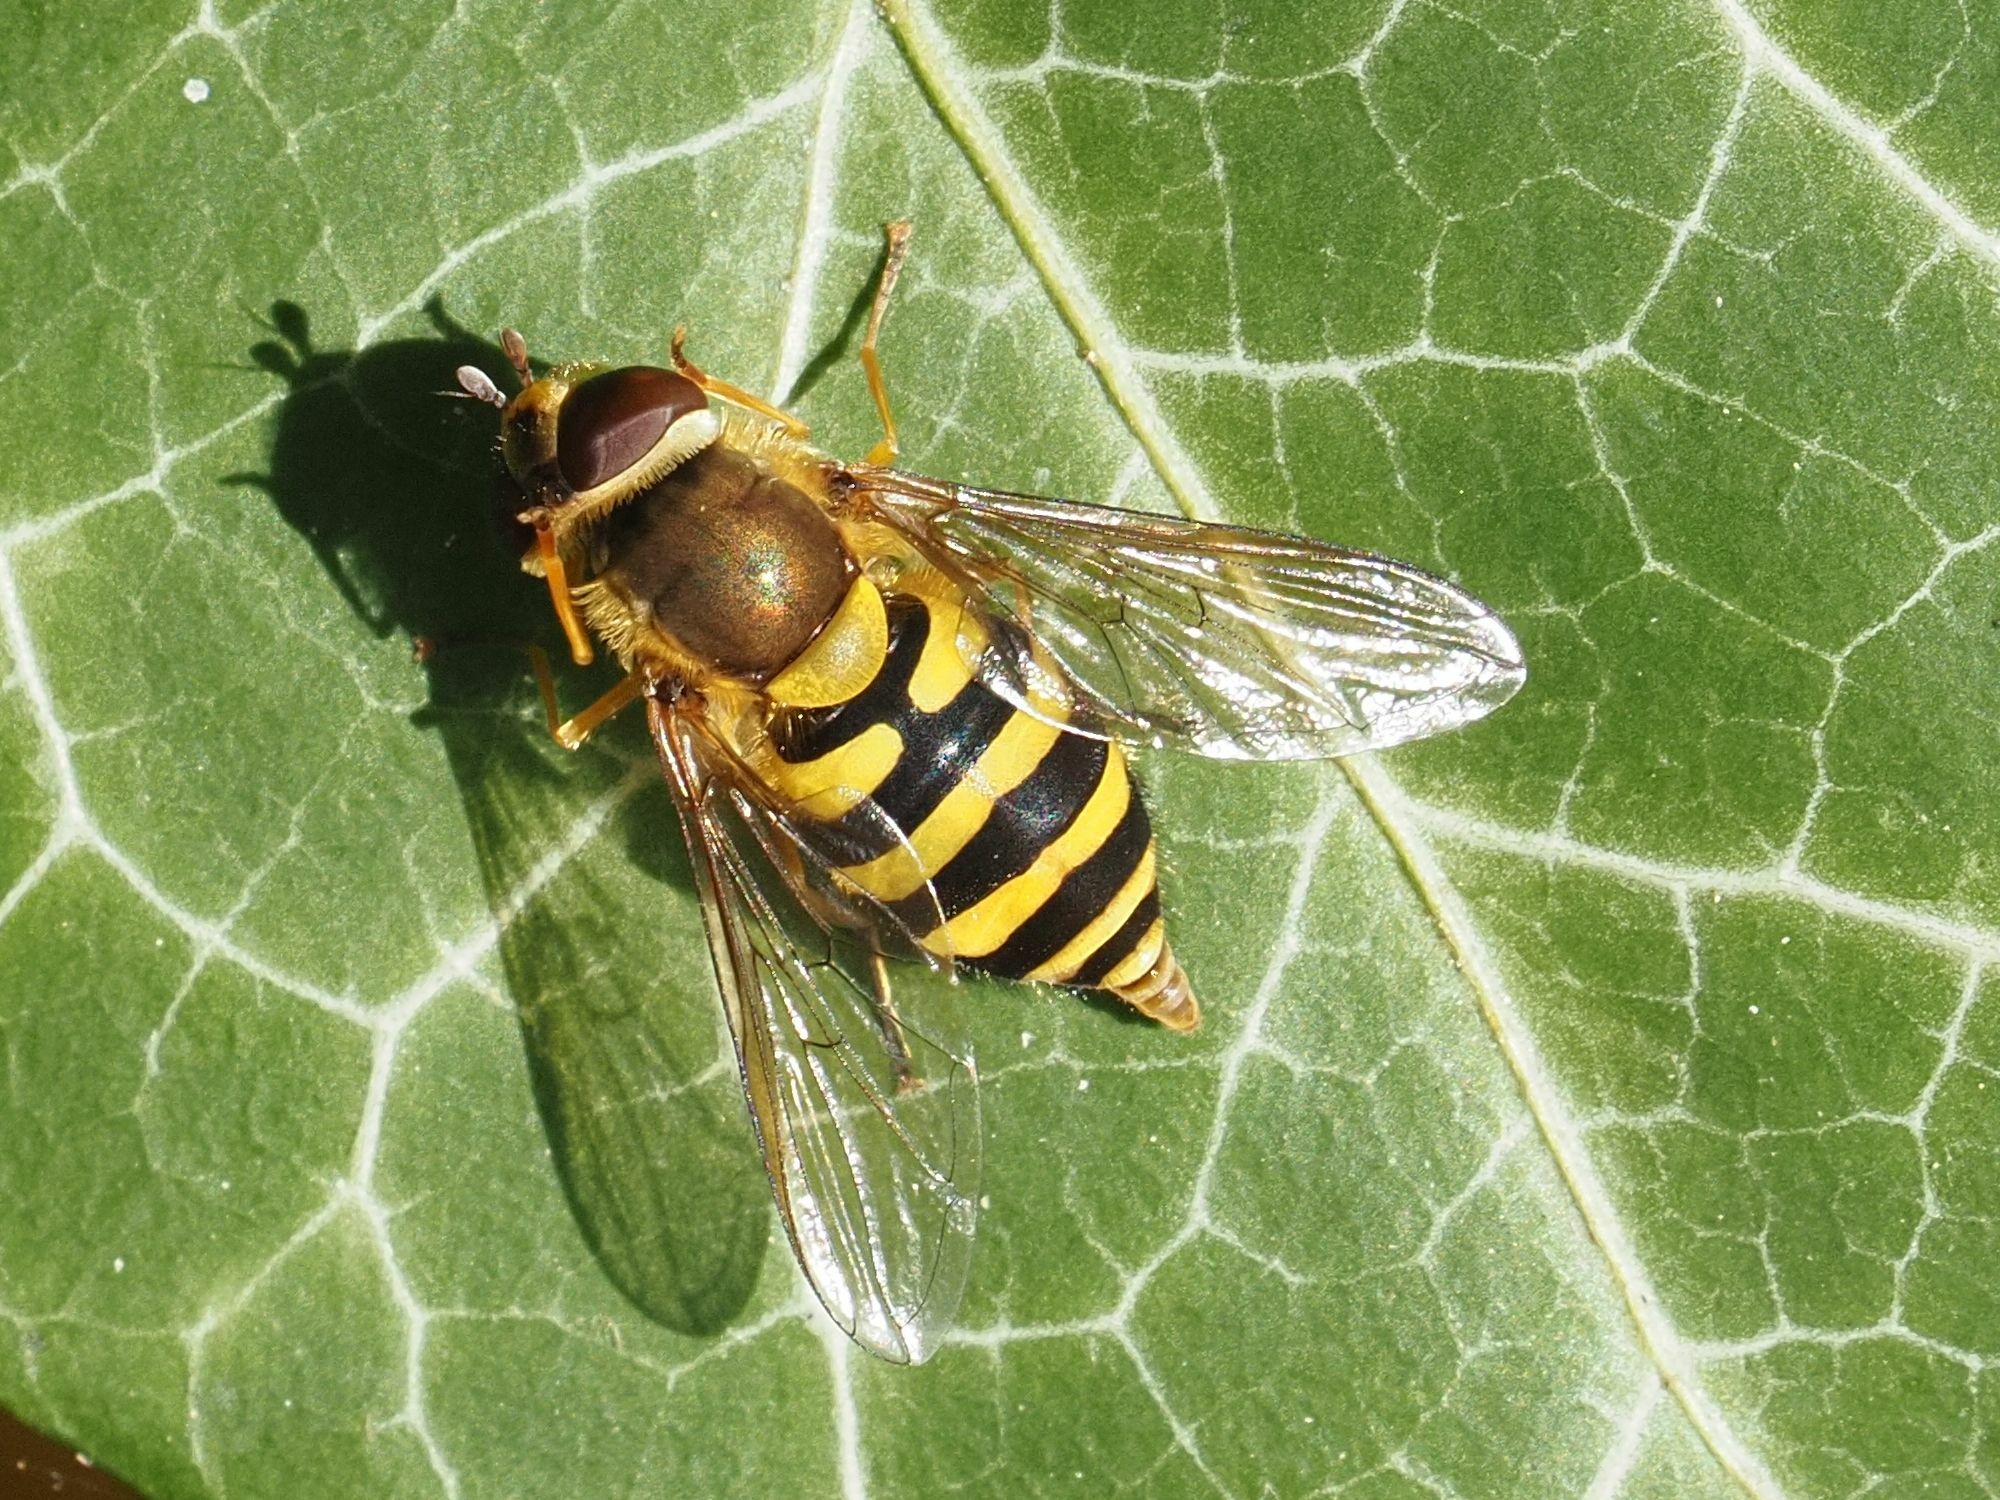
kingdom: Animalia
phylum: Arthropoda
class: Insecta
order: Diptera
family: Syrphidae
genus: Syrphus
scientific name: Syrphus
